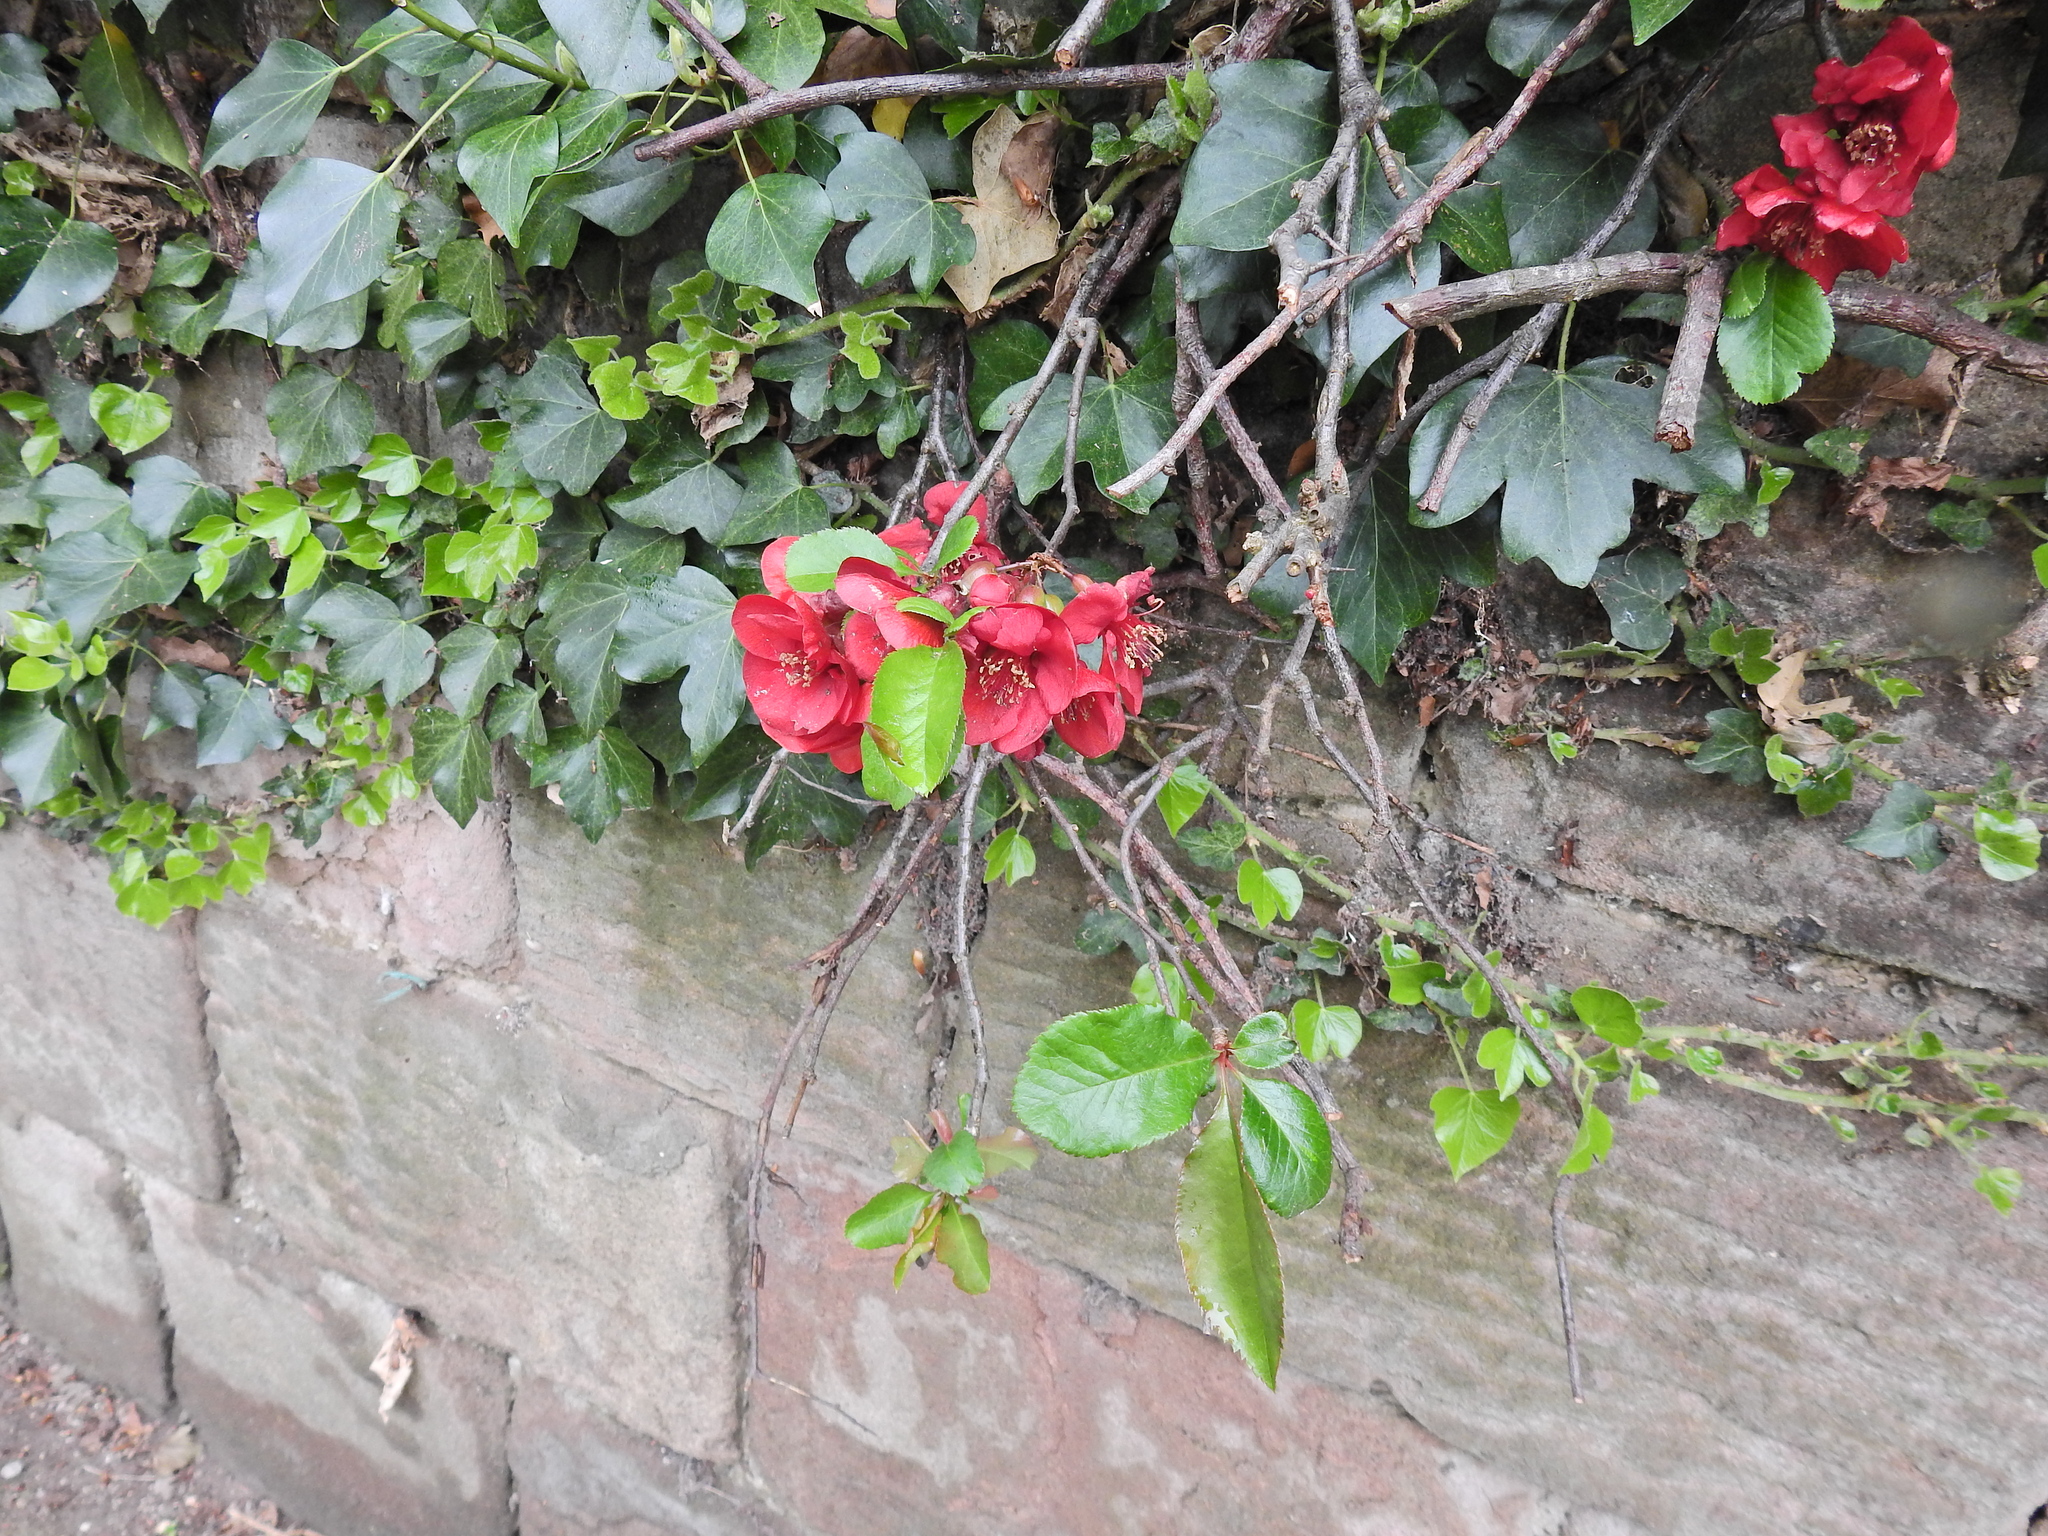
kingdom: Plantae
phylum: Tracheophyta
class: Magnoliopsida
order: Rosales
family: Rosaceae
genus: Chaenomeles
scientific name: Chaenomeles speciosa
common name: Japanese quince
